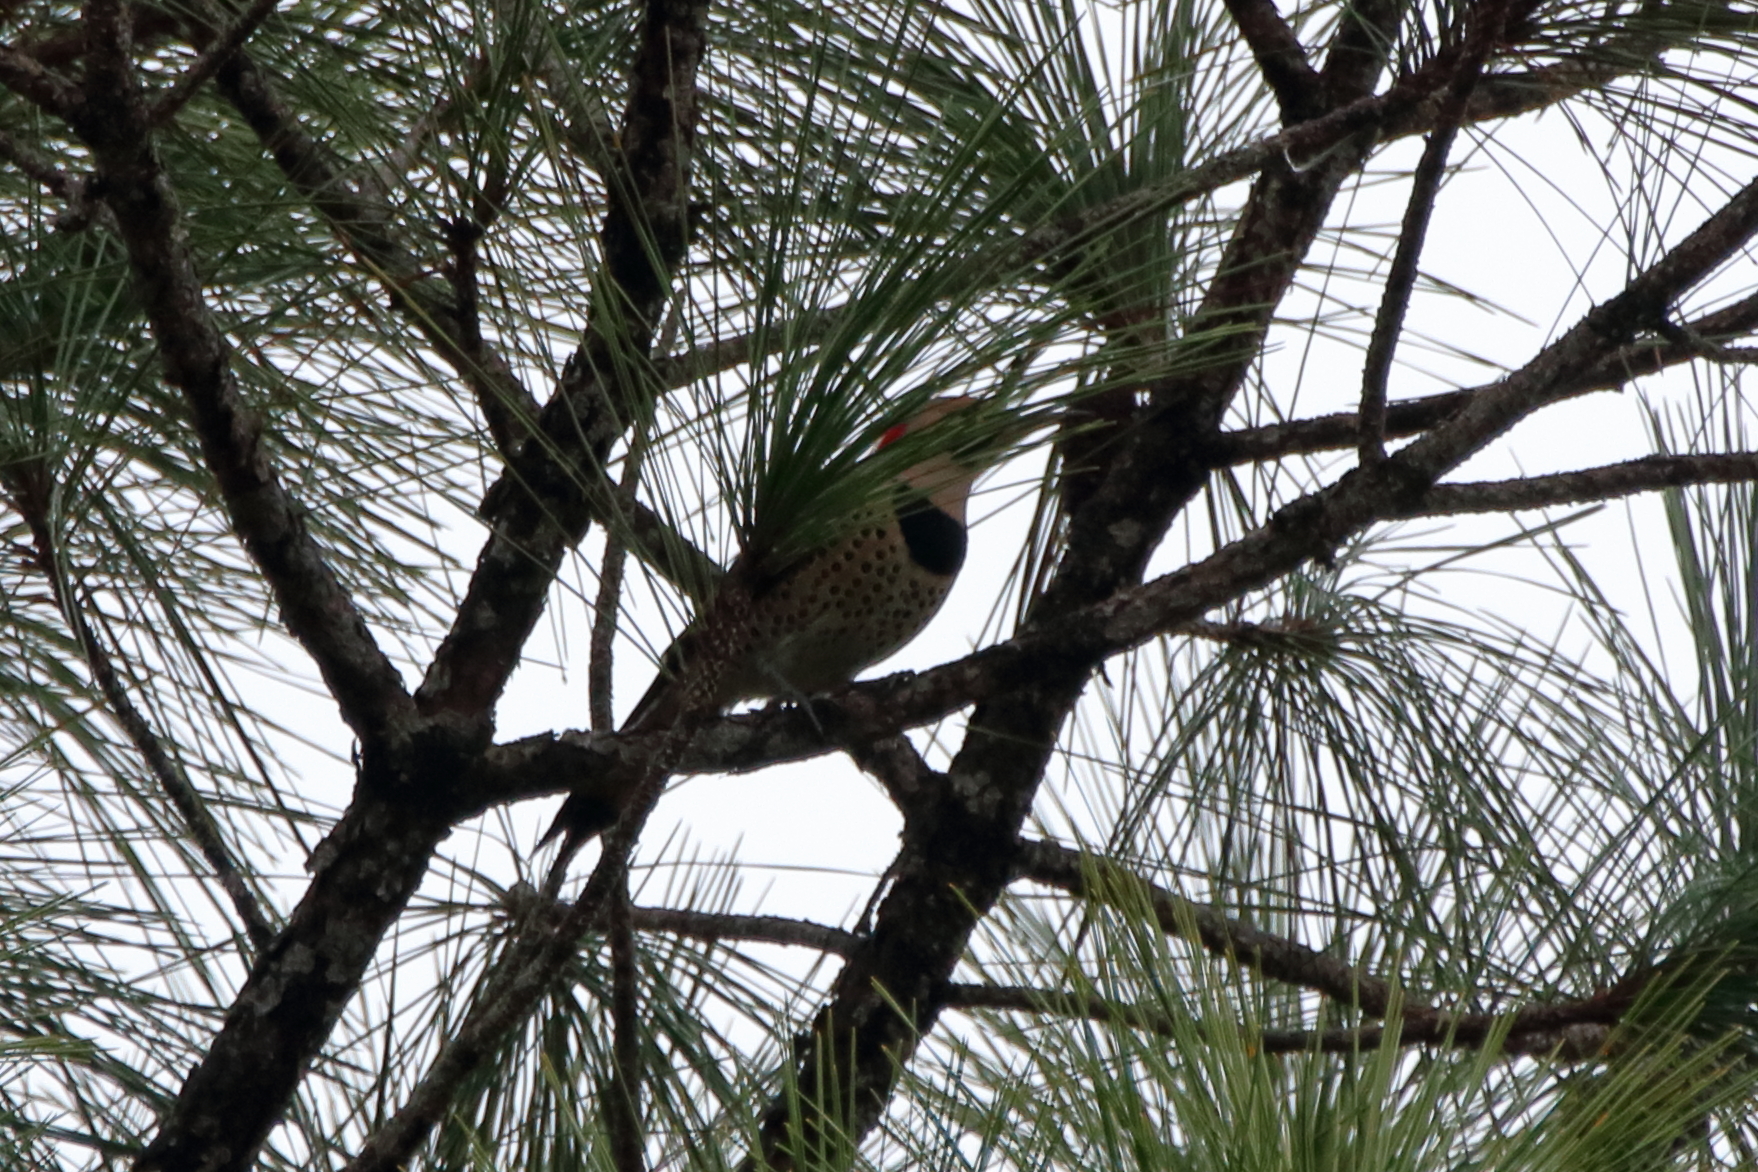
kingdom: Animalia
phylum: Chordata
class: Aves
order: Piciformes
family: Picidae
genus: Colaptes
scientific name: Colaptes auratus
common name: Northern flicker
